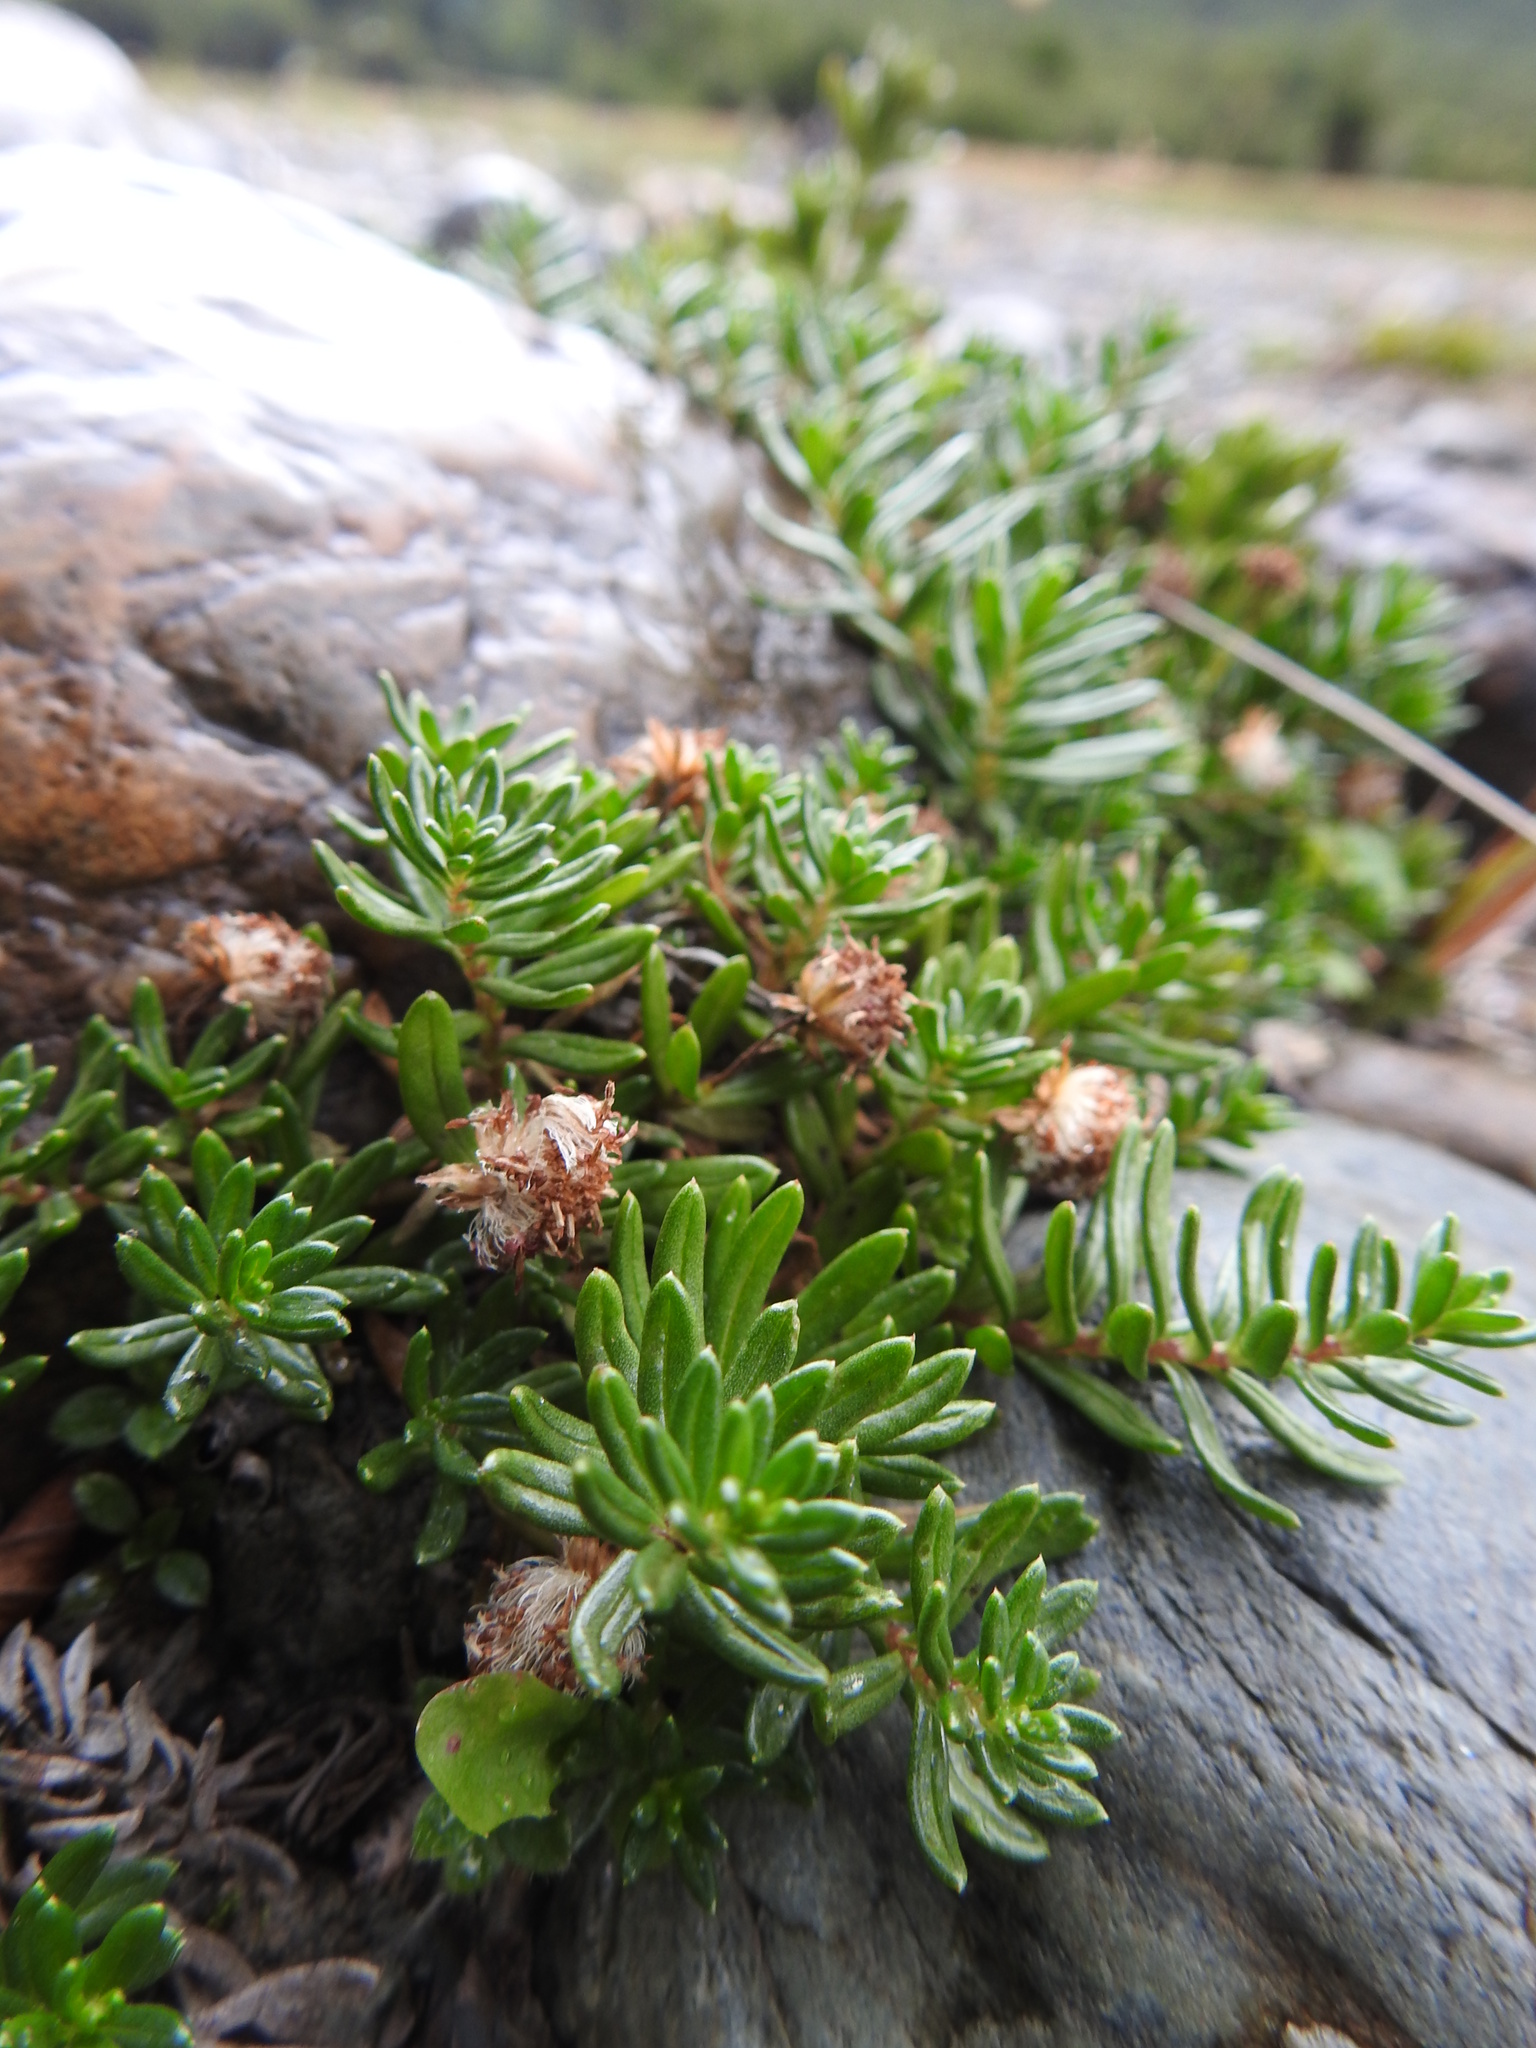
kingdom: Plantae
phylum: Tracheophyta
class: Magnoliopsida
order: Asterales
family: Asteraceae
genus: Baccharis
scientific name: Baccharis nivalis
